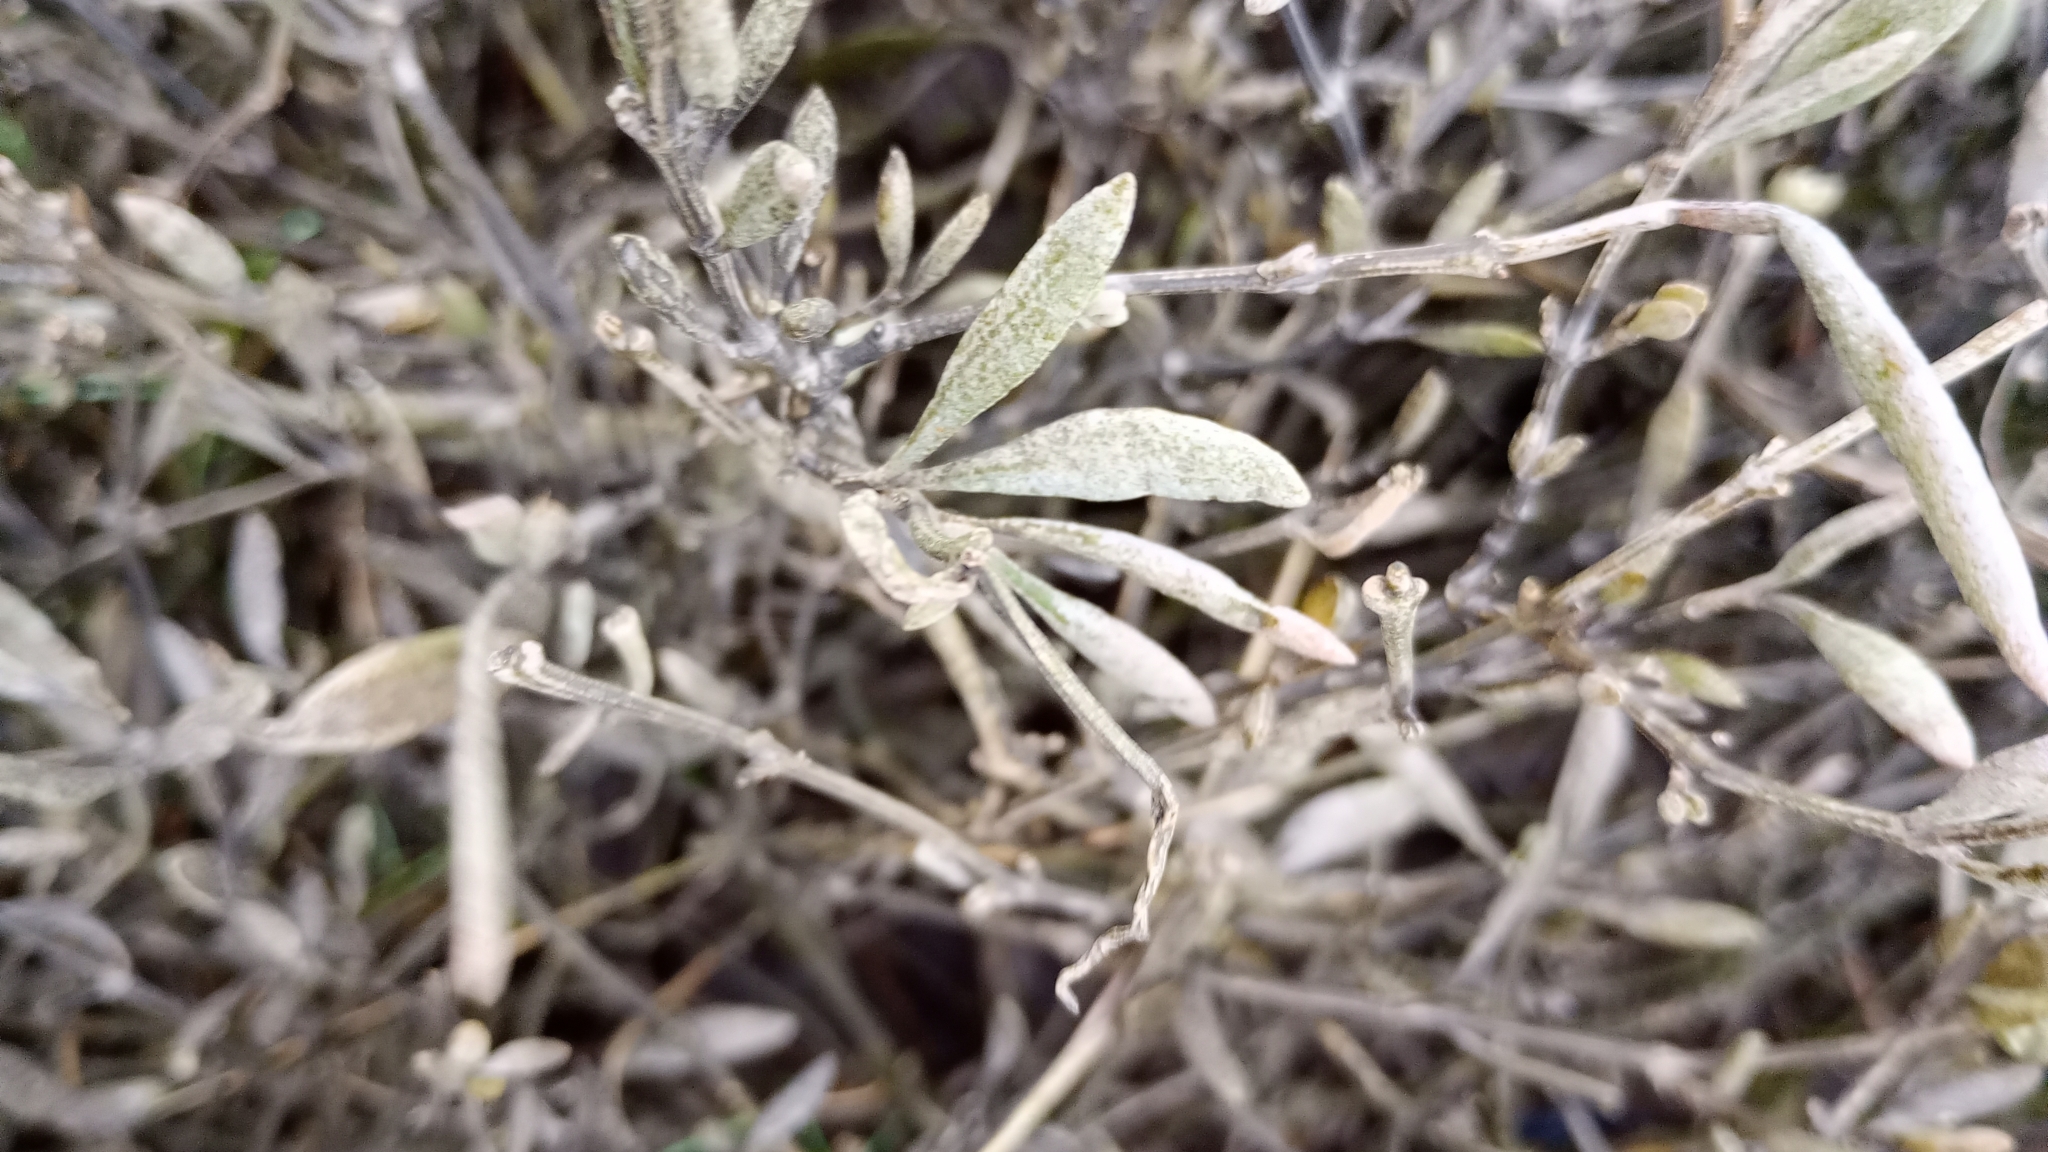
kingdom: Plantae
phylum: Tracheophyta
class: Magnoliopsida
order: Caryophyllales
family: Amaranthaceae
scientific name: Amaranthaceae
